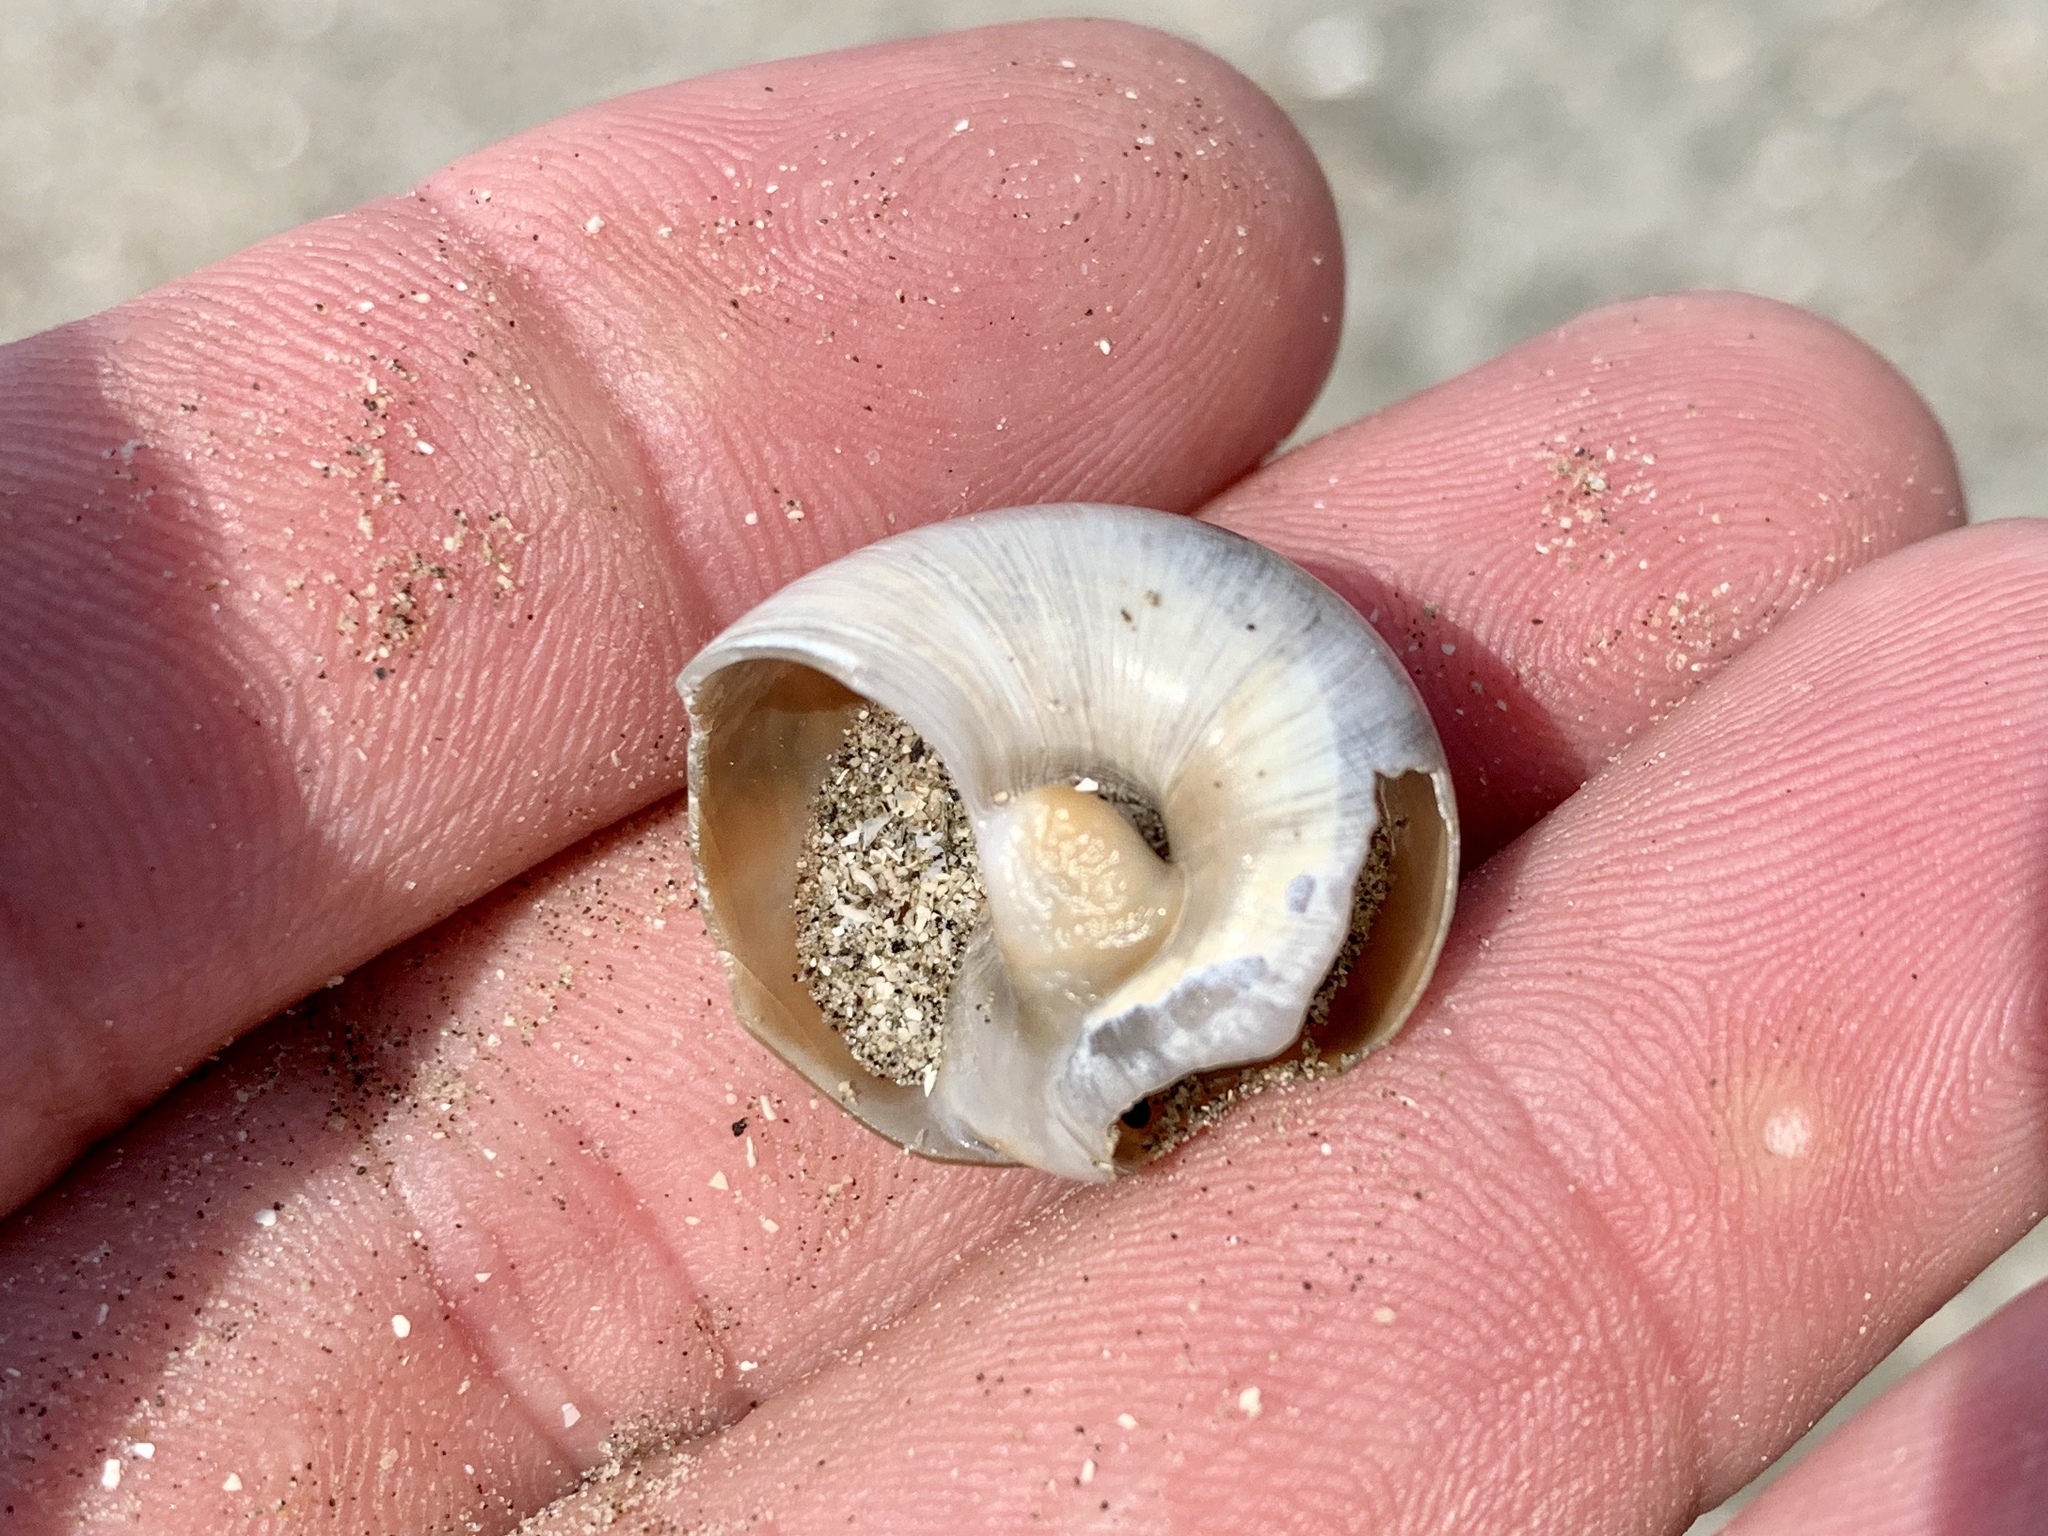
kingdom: Animalia
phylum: Mollusca
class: Gastropoda
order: Littorinimorpha
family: Naticidae
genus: Neverita
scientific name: Neverita duplicata
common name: Lobed moonsnail
